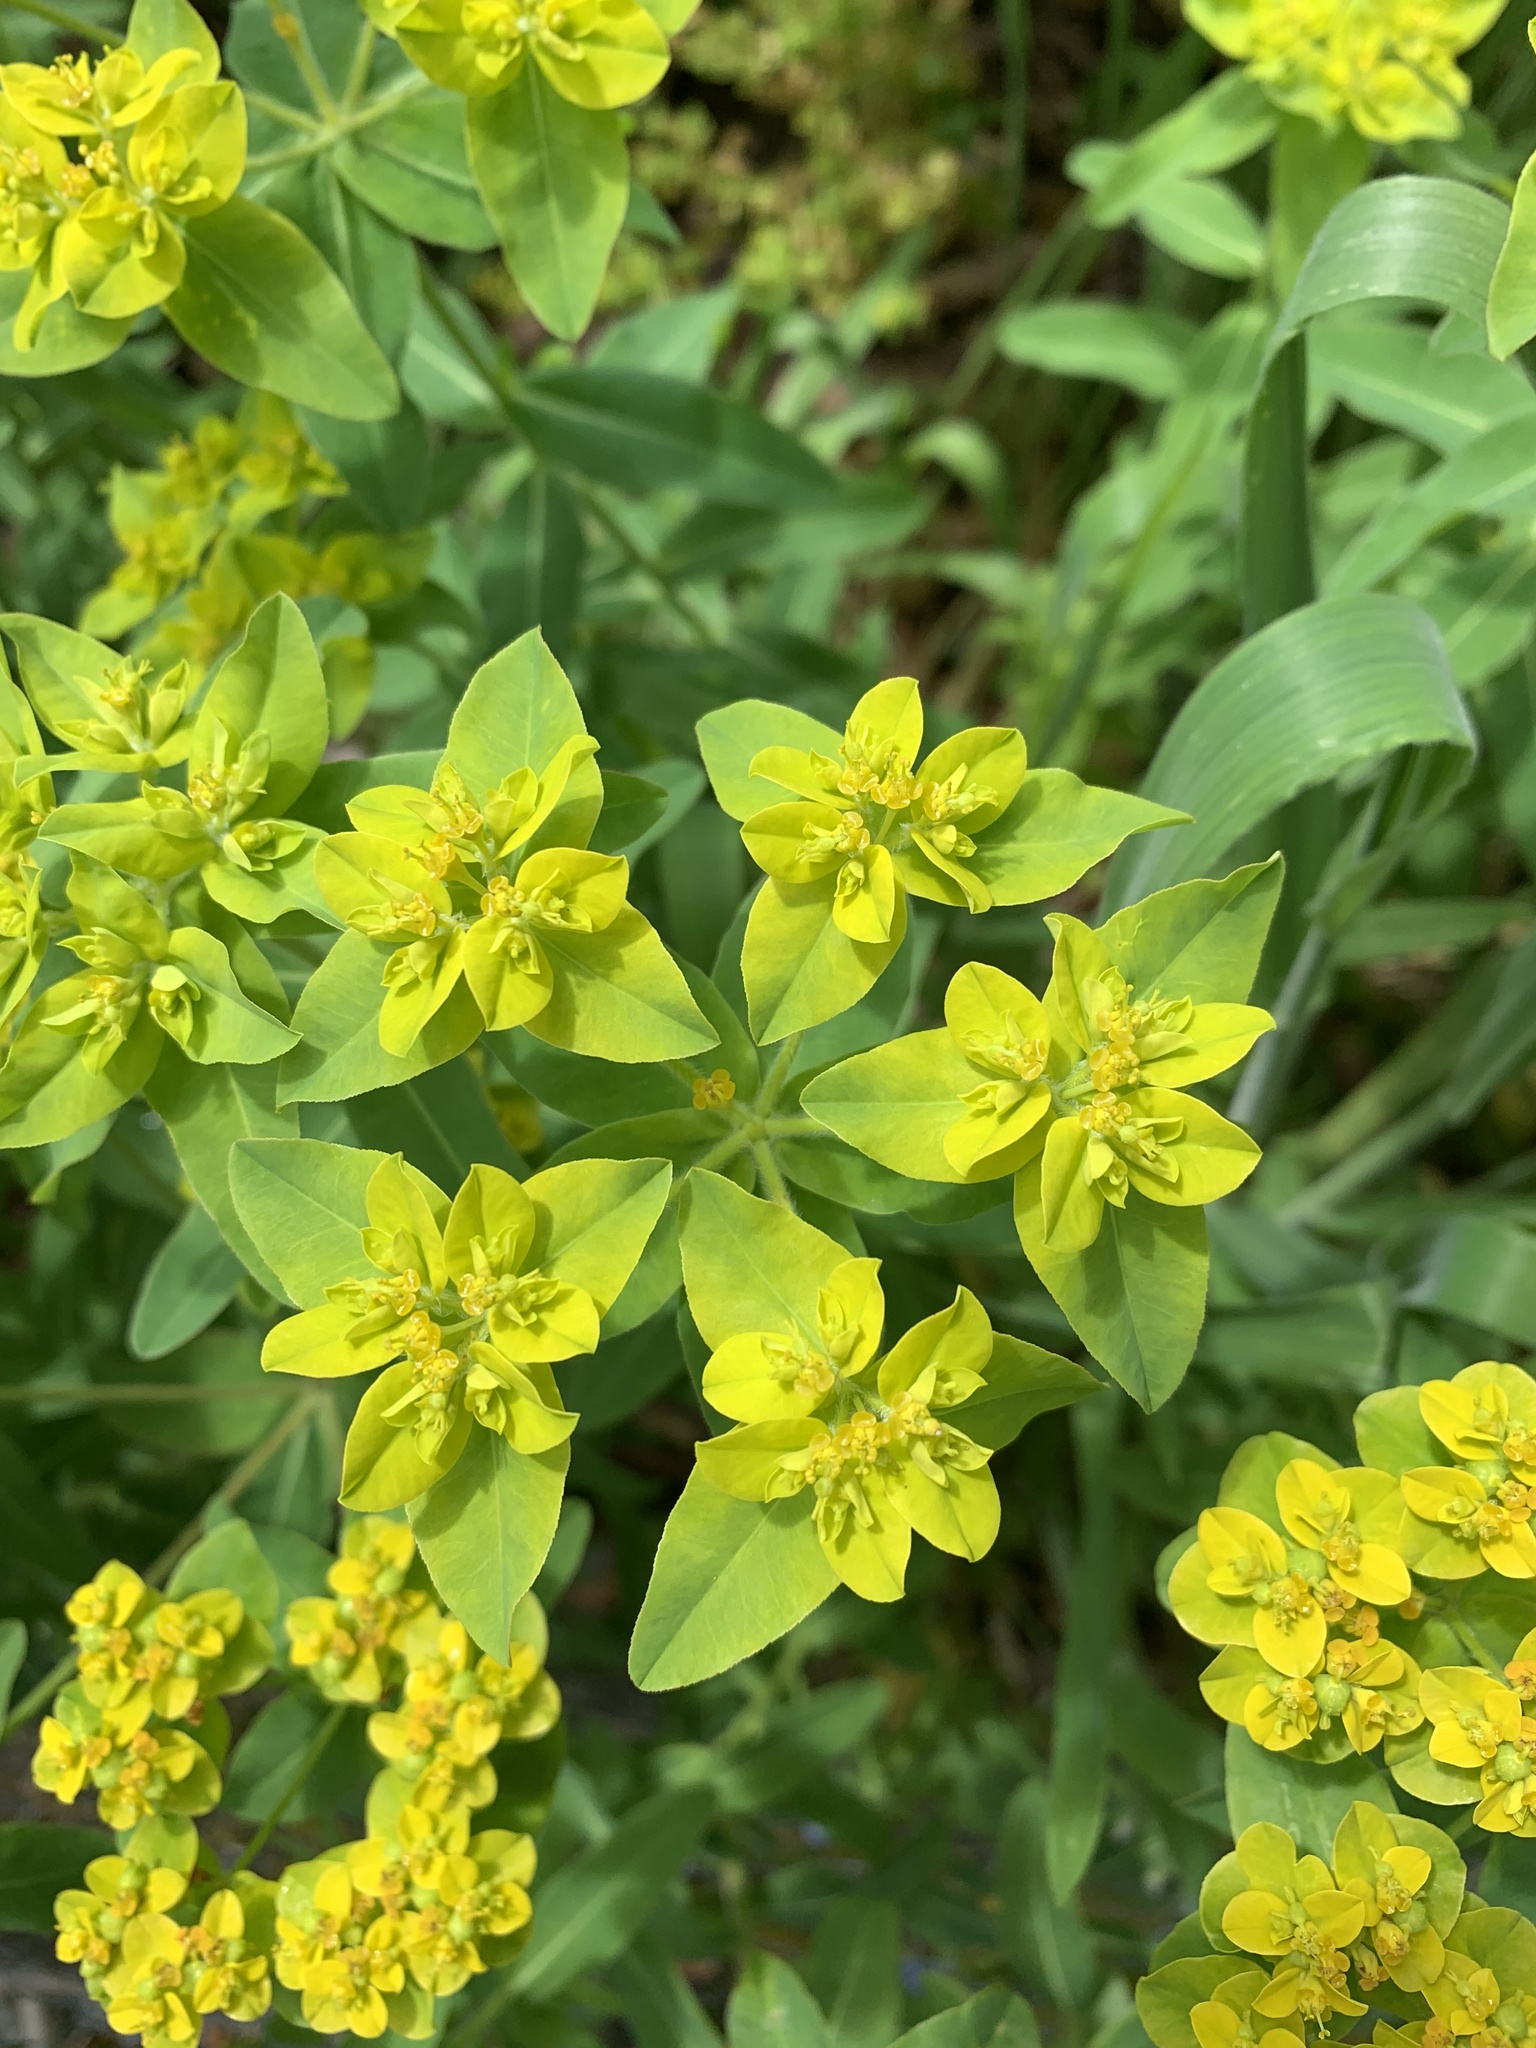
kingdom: Plantae
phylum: Tracheophyta
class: Magnoliopsida
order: Malpighiales
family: Euphorbiaceae
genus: Euphorbia
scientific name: Euphorbia oblongata
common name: Balkan spurge
